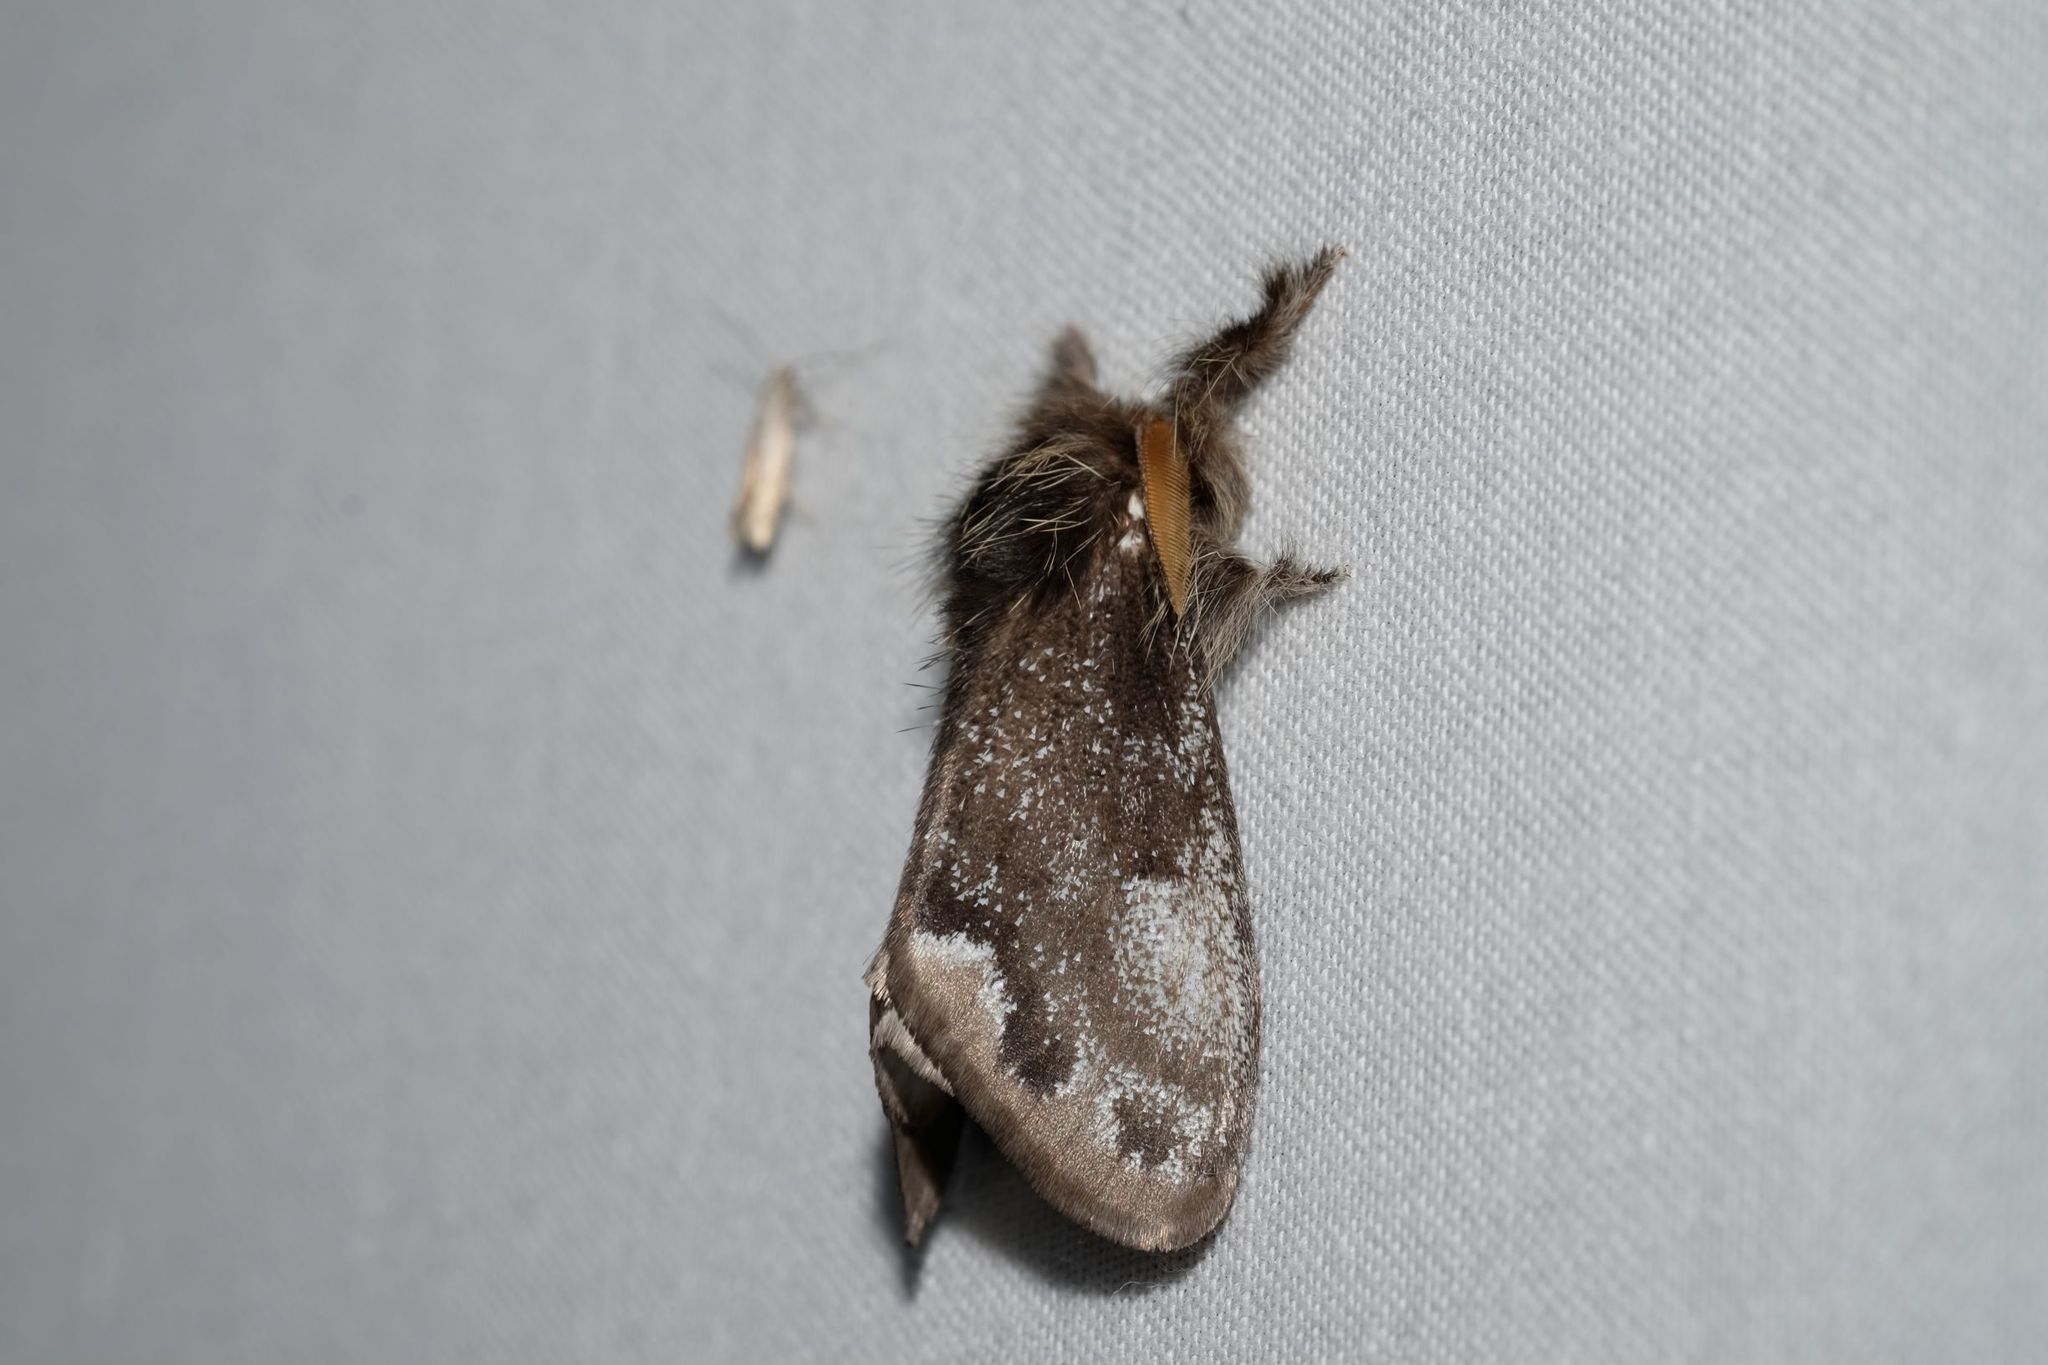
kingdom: Animalia
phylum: Arthropoda
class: Insecta
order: Lepidoptera
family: Erebidae
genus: Euproctis
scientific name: Euproctis
